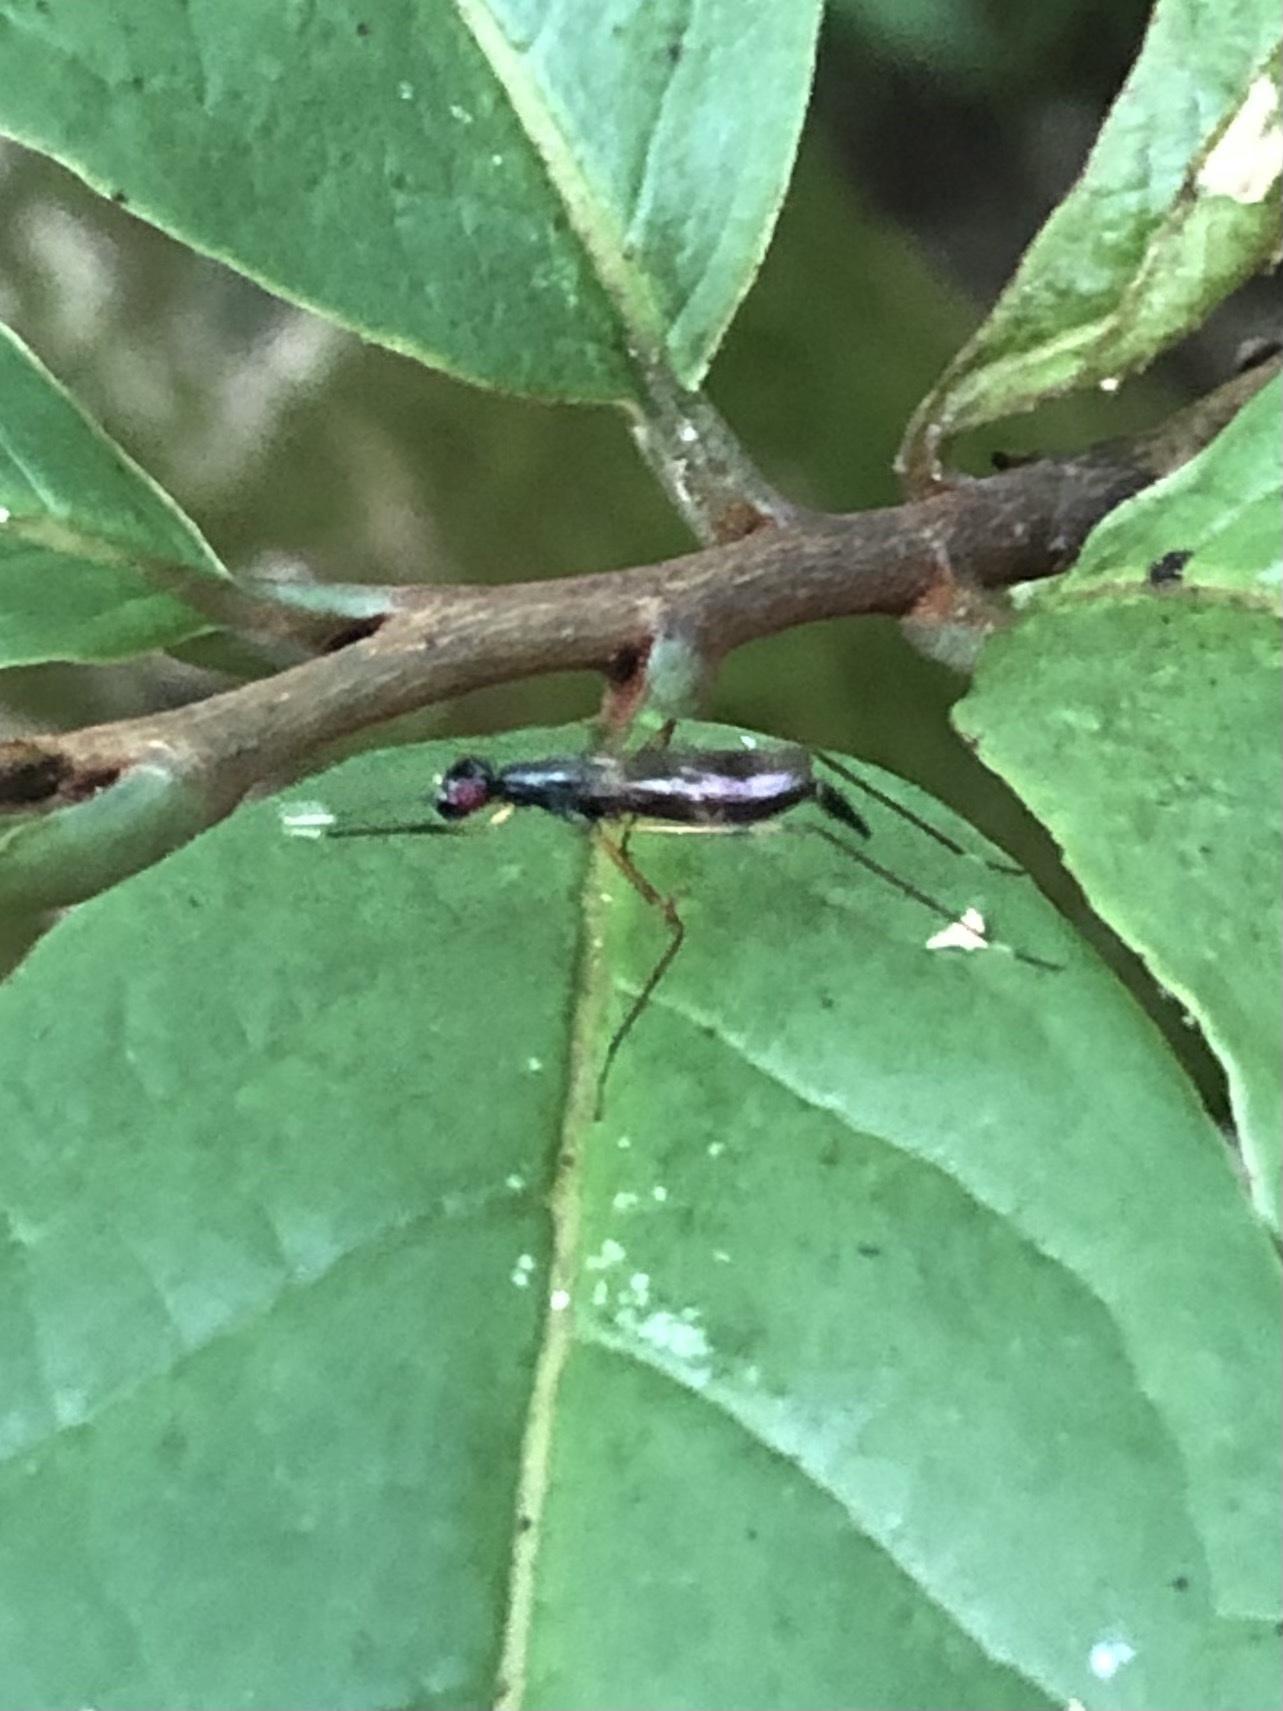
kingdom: Animalia
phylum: Arthropoda
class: Insecta
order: Diptera
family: Micropezidae
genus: Rainieria
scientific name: Rainieria antennaepes
